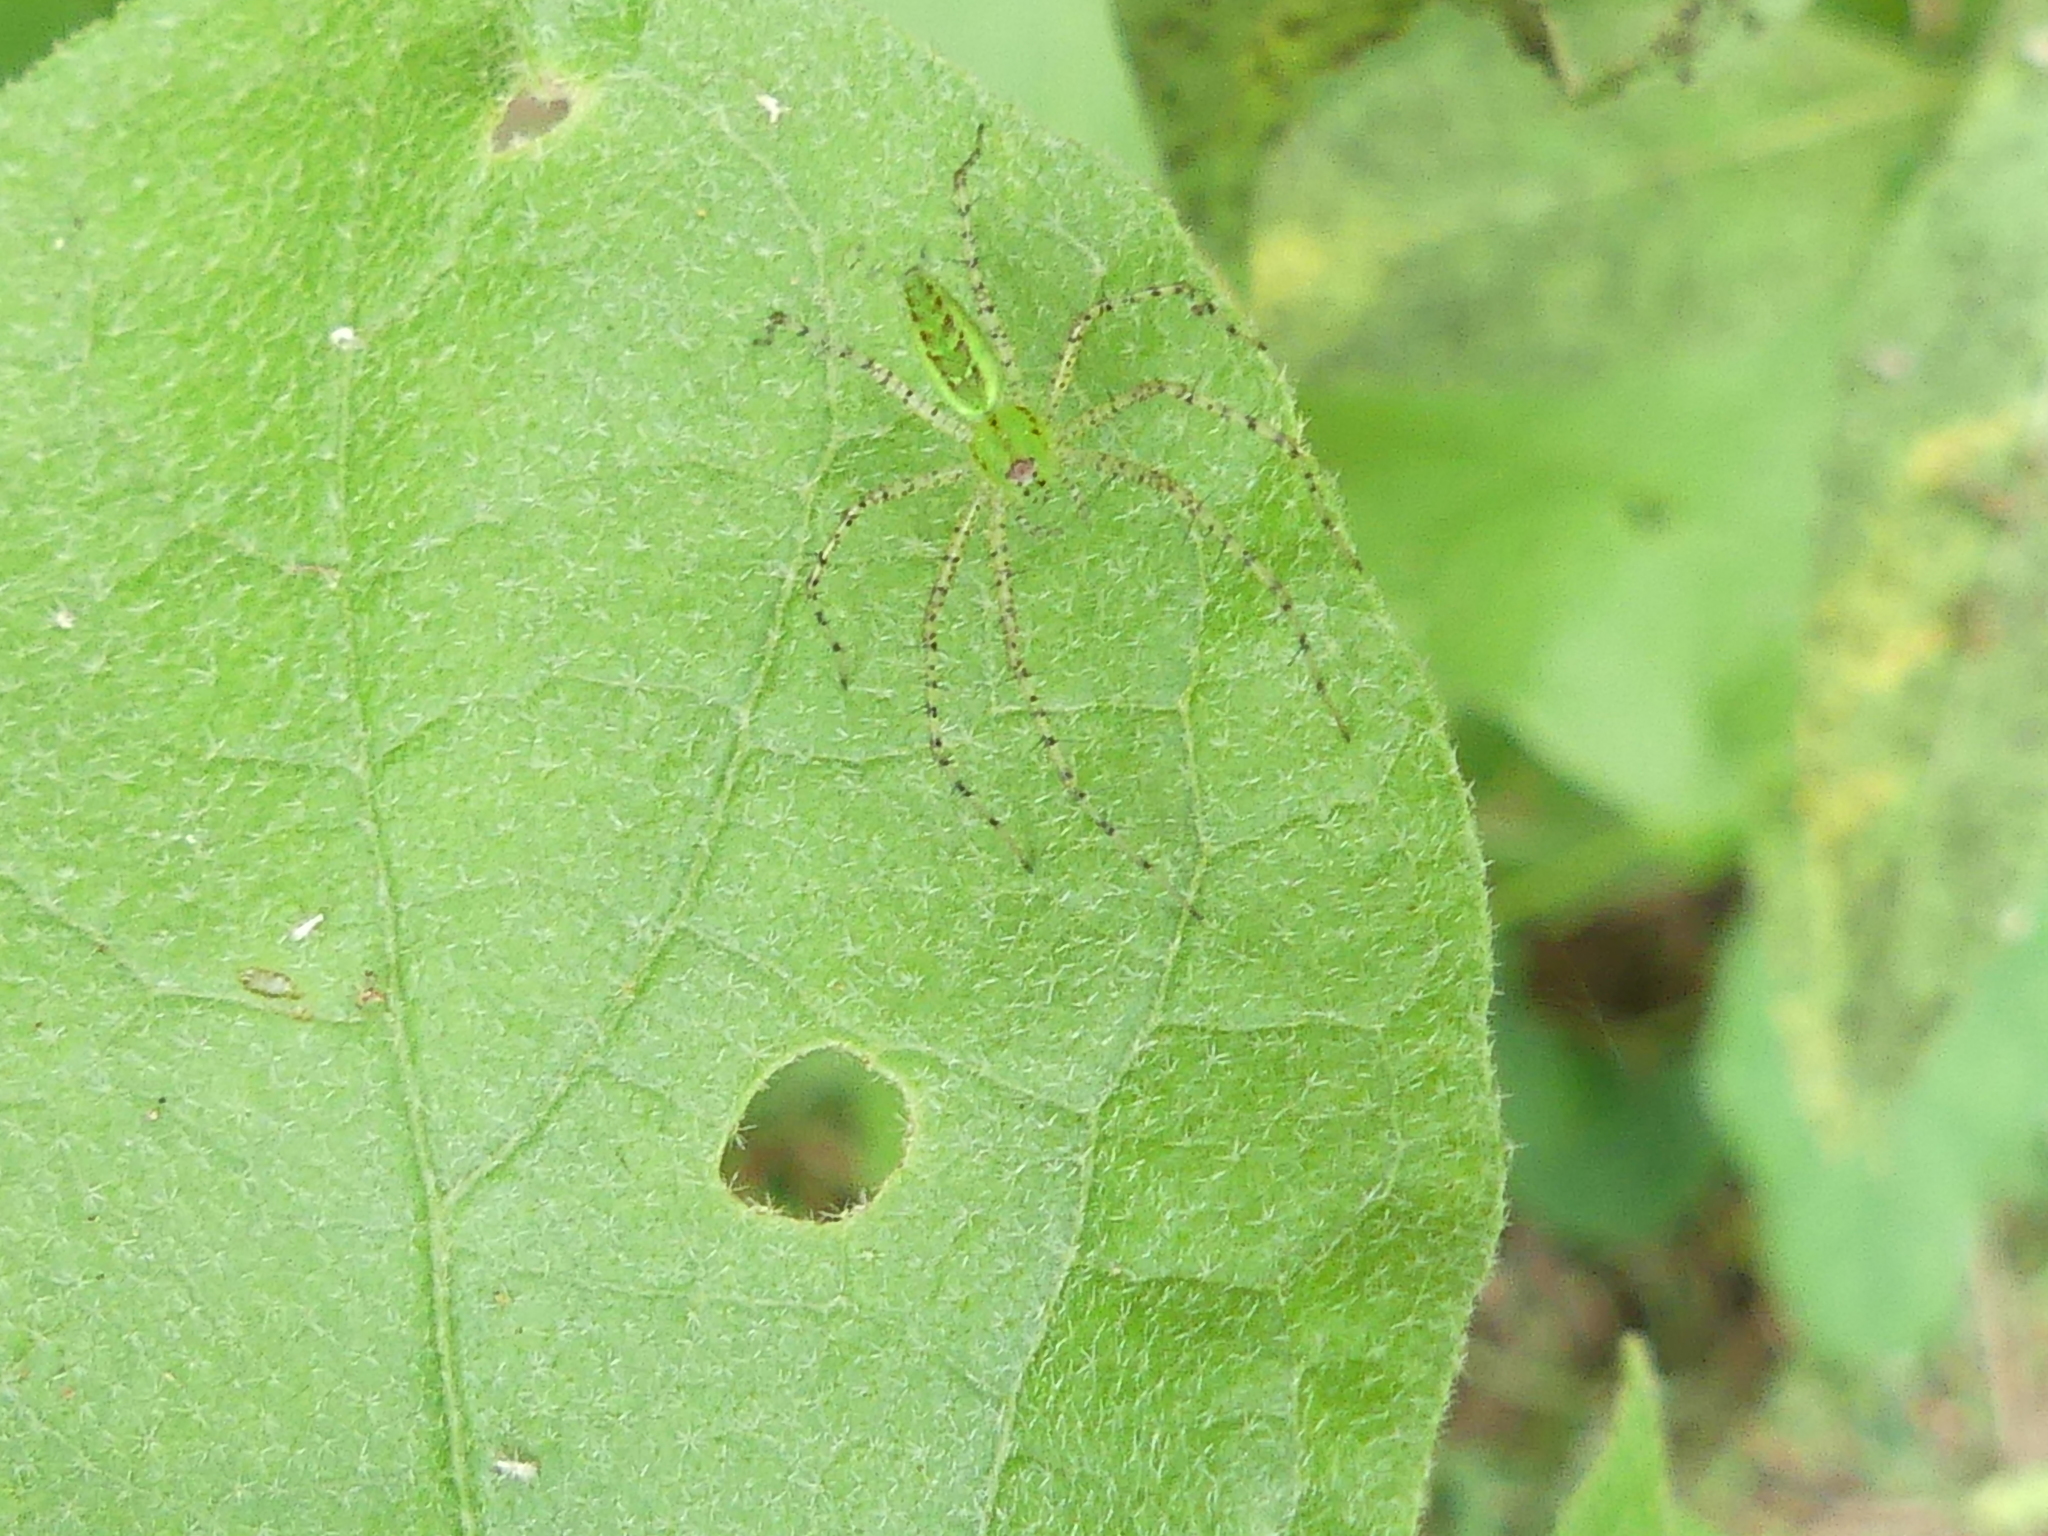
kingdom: Animalia
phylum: Arthropoda
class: Arachnida
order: Araneae
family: Oxyopidae
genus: Peucetia
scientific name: Peucetia viridans
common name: Lynx spiders
